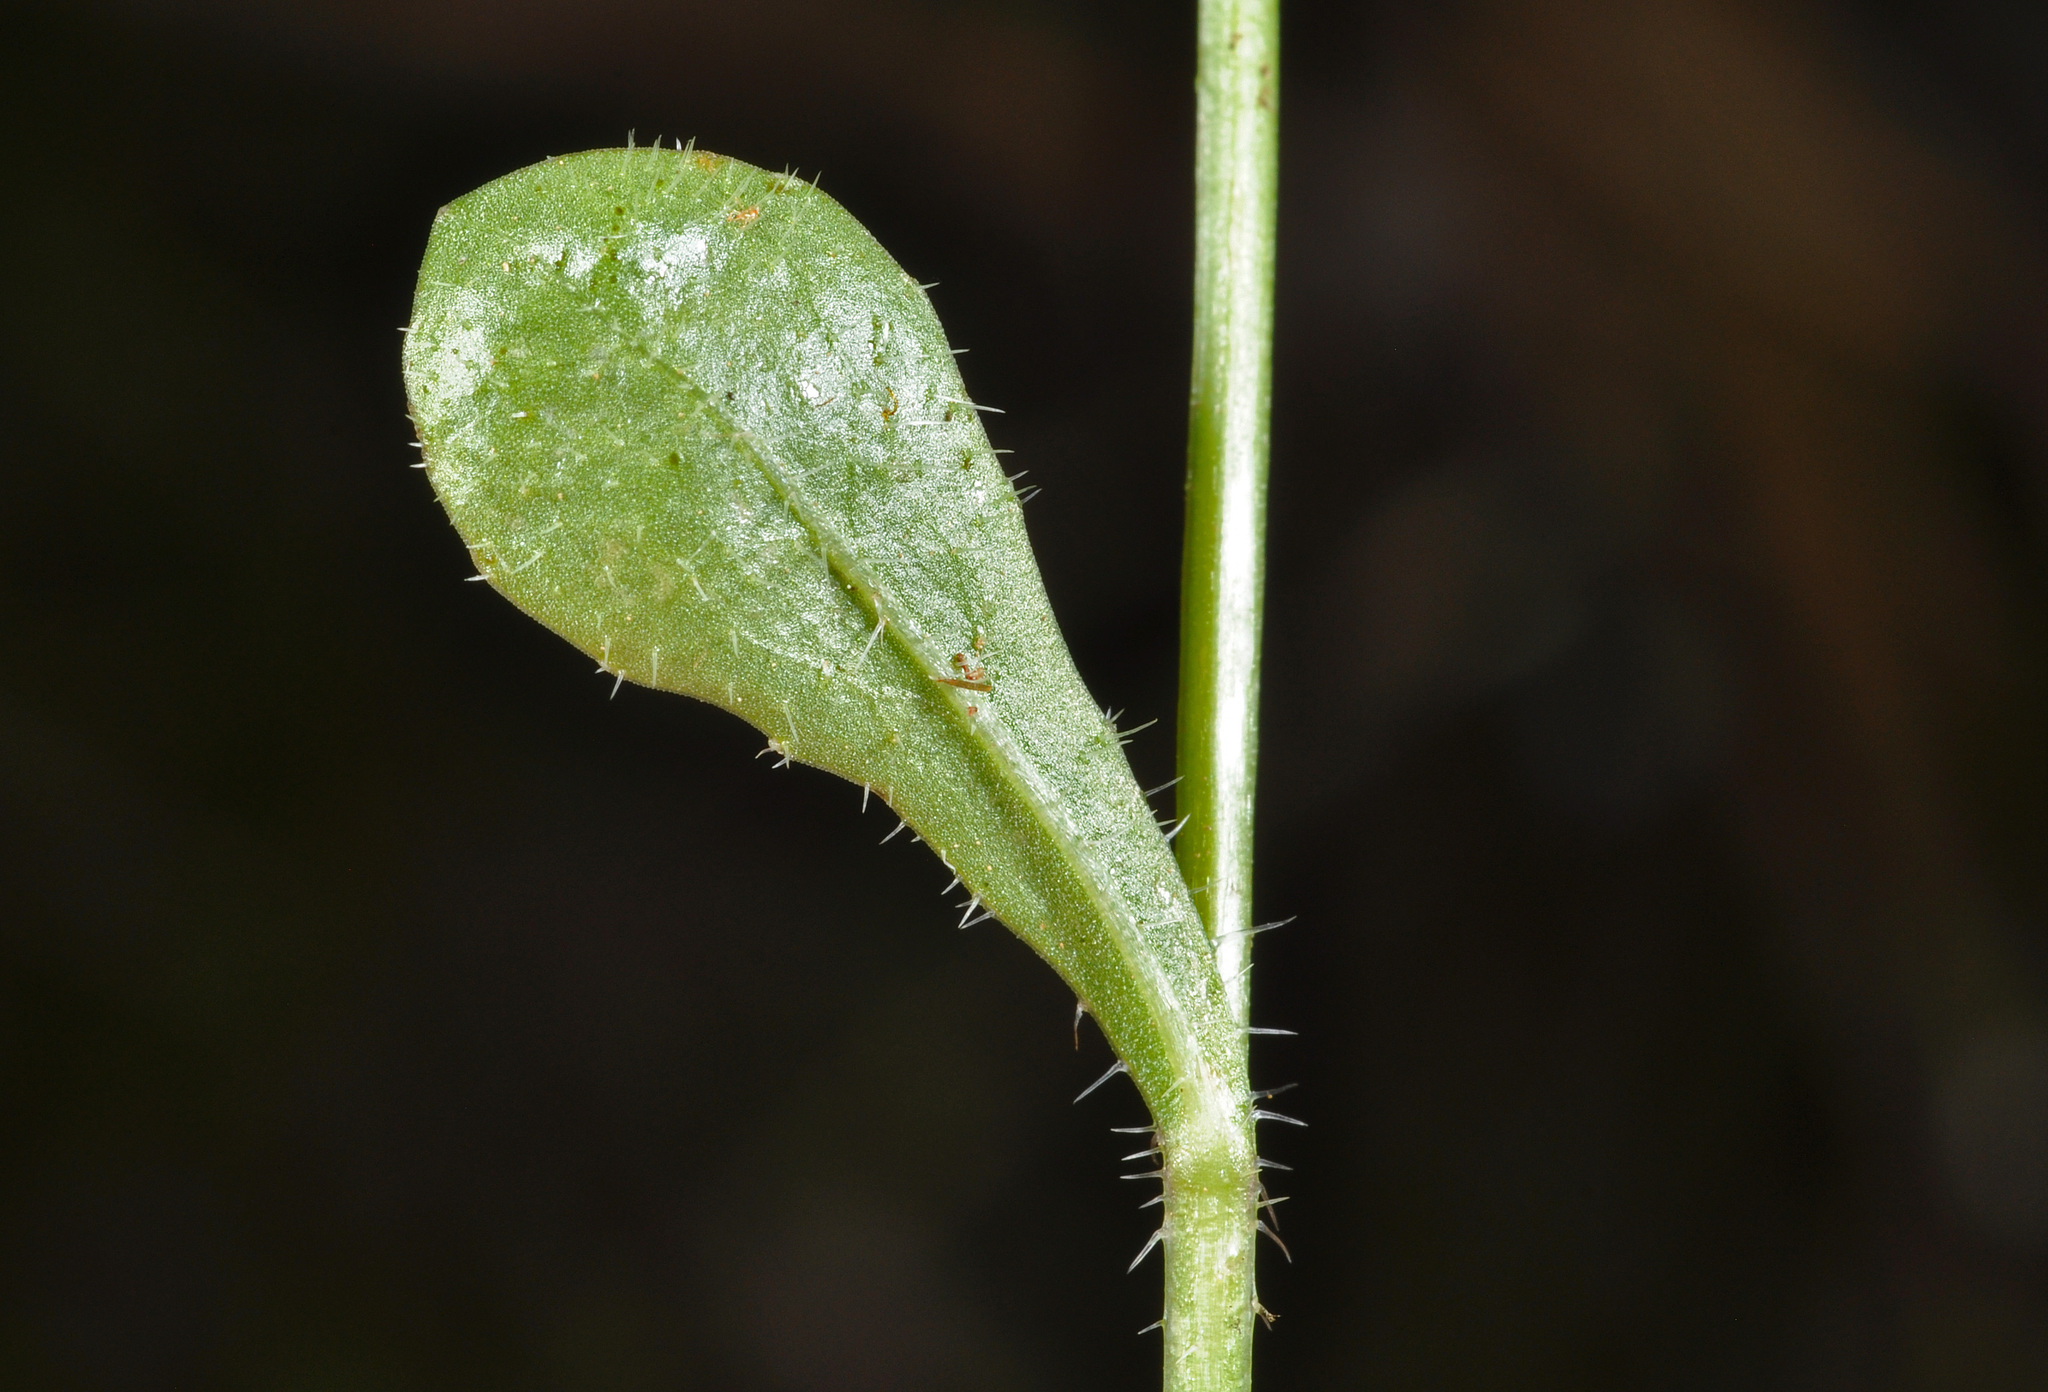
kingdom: Plantae
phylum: Tracheophyta
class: Magnoliopsida
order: Asterales
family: Campanulaceae
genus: Wahlenbergia
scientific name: Wahlenbergia rupestris
